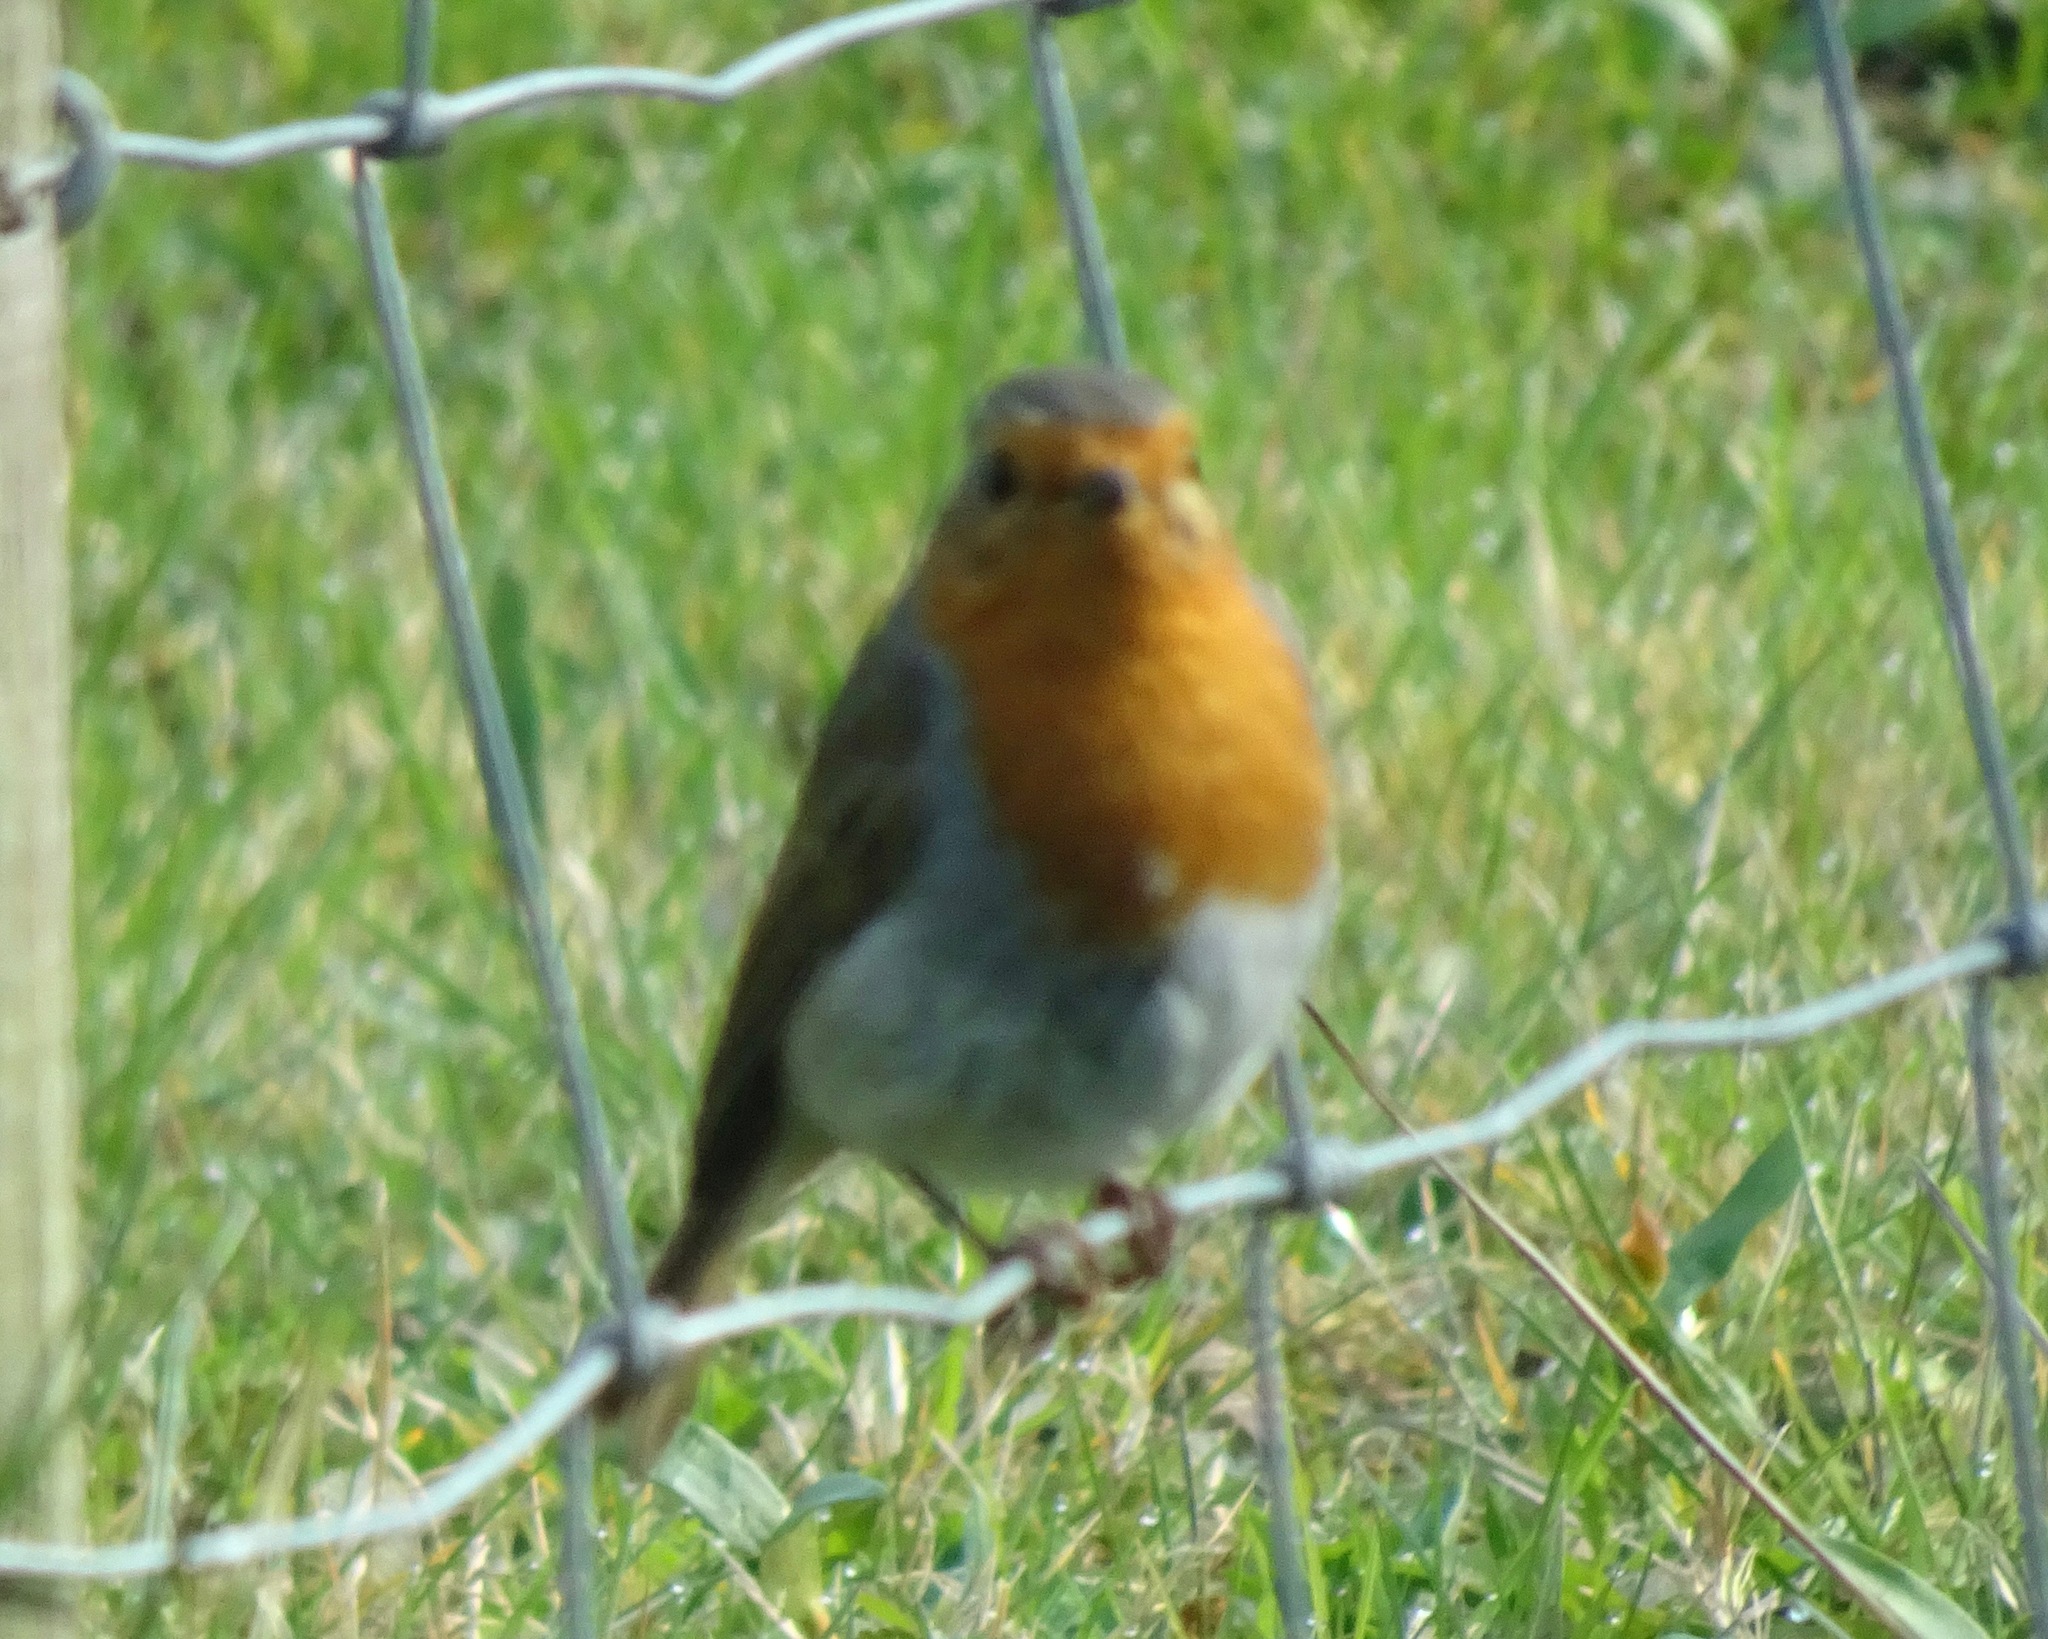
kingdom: Animalia
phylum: Chordata
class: Aves
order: Passeriformes
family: Muscicapidae
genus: Erithacus
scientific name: Erithacus rubecula
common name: European robin
